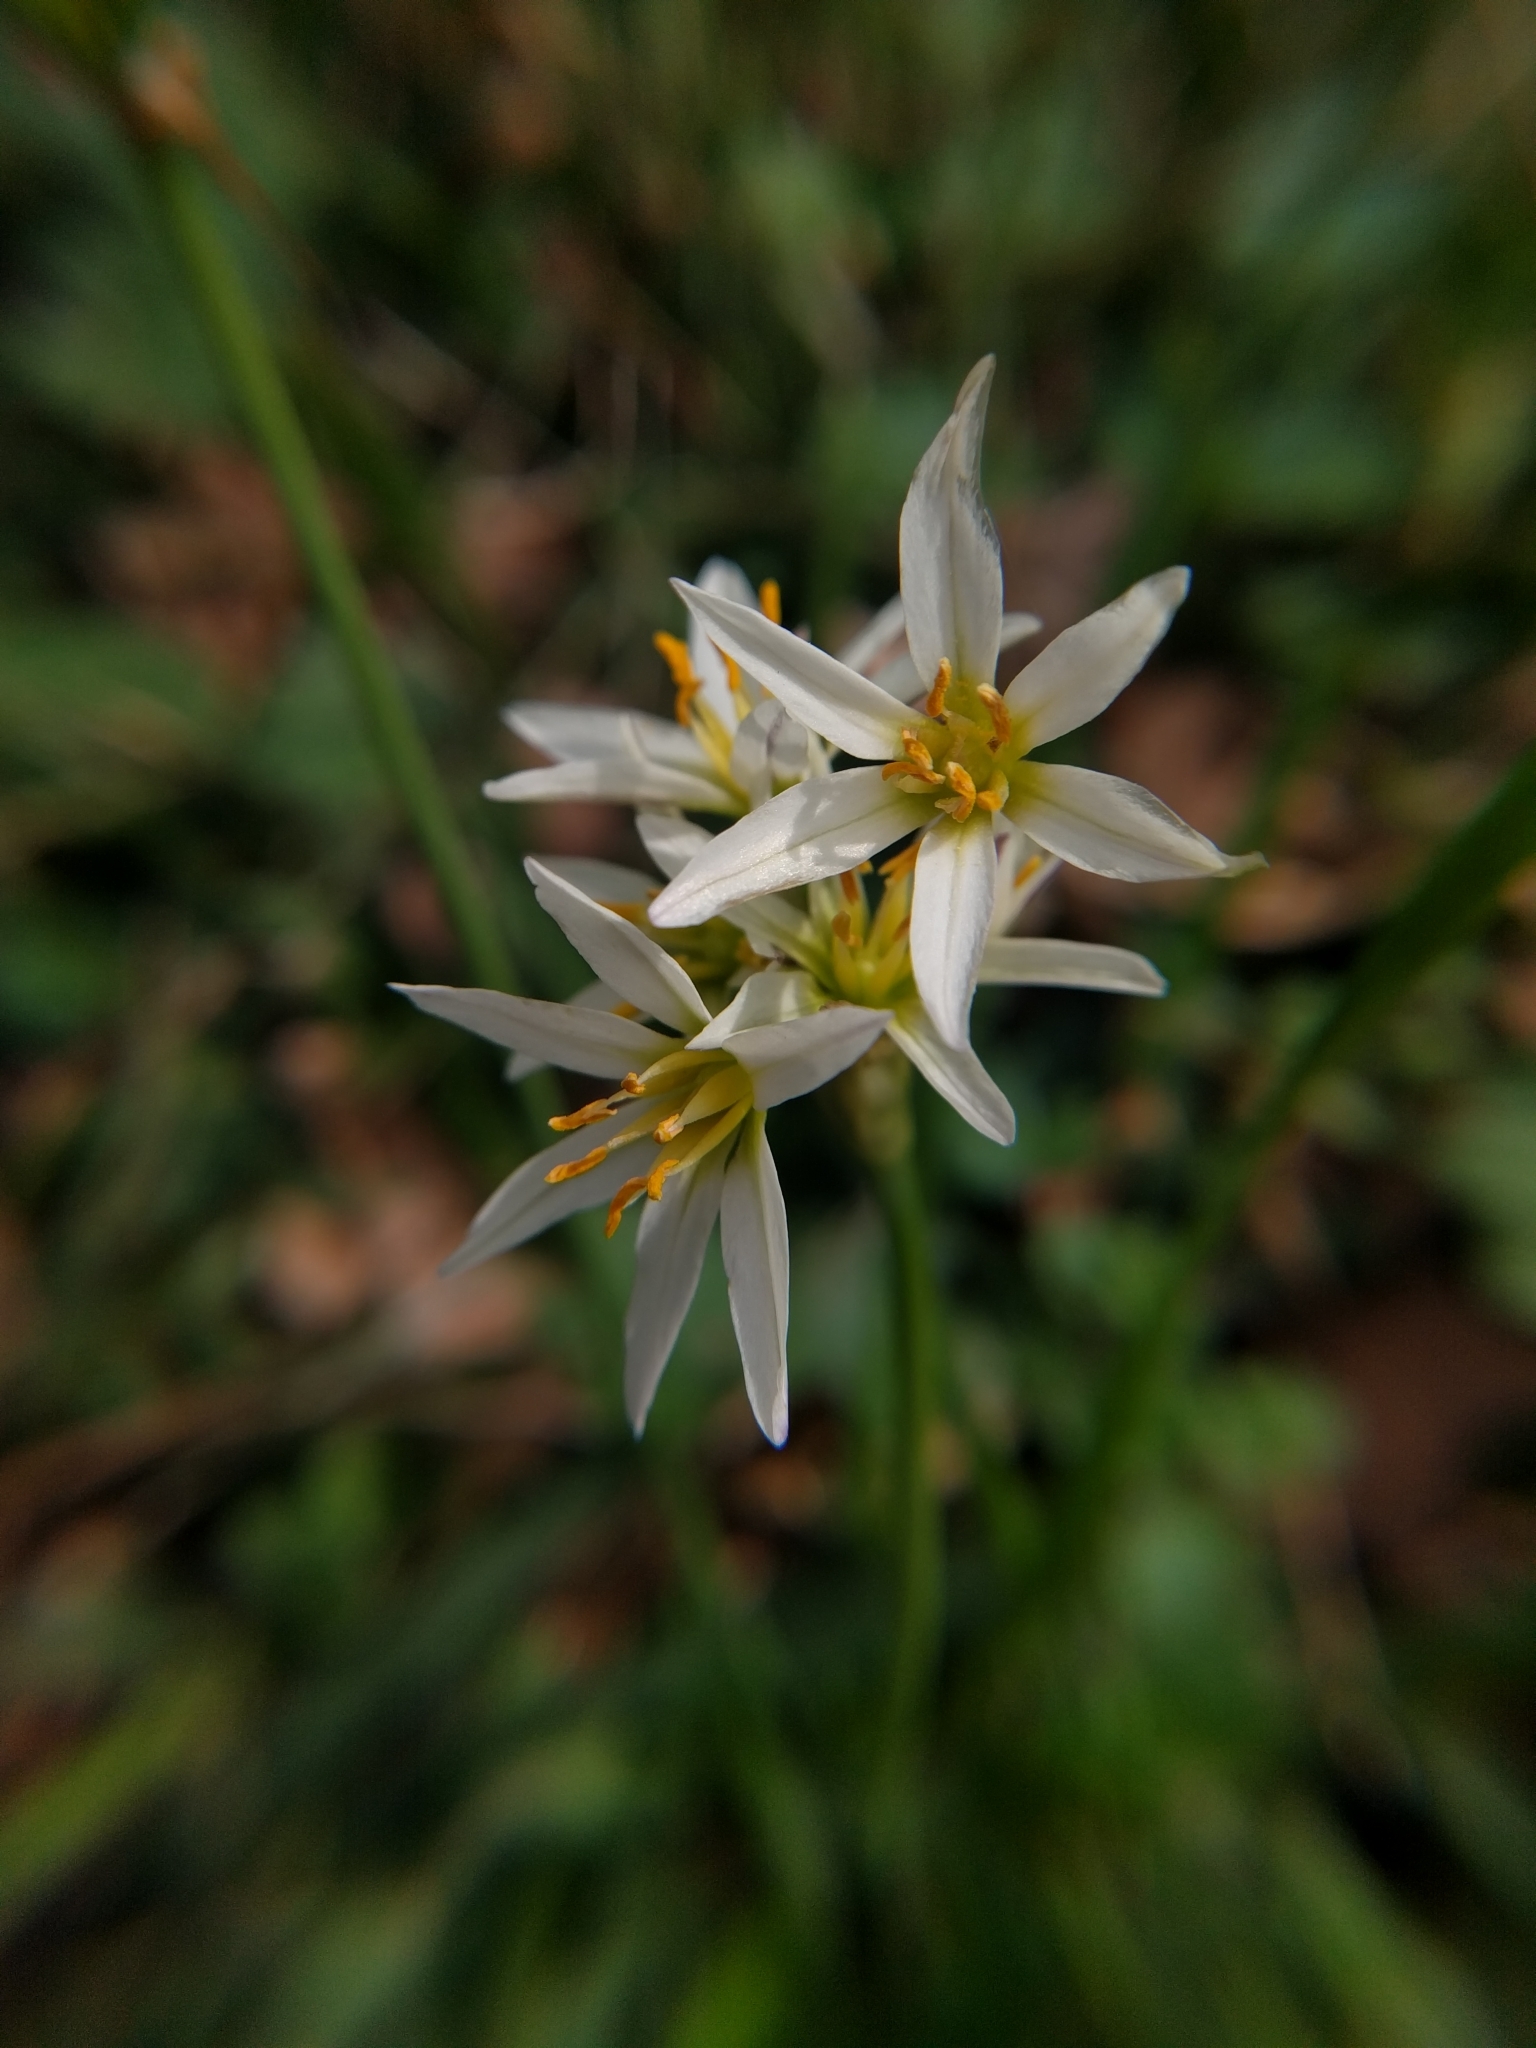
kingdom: Plantae
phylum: Tracheophyta
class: Liliopsida
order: Asparagales
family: Amaryllidaceae
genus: Nothoscordum
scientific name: Nothoscordum bivalve
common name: Crow-poison
